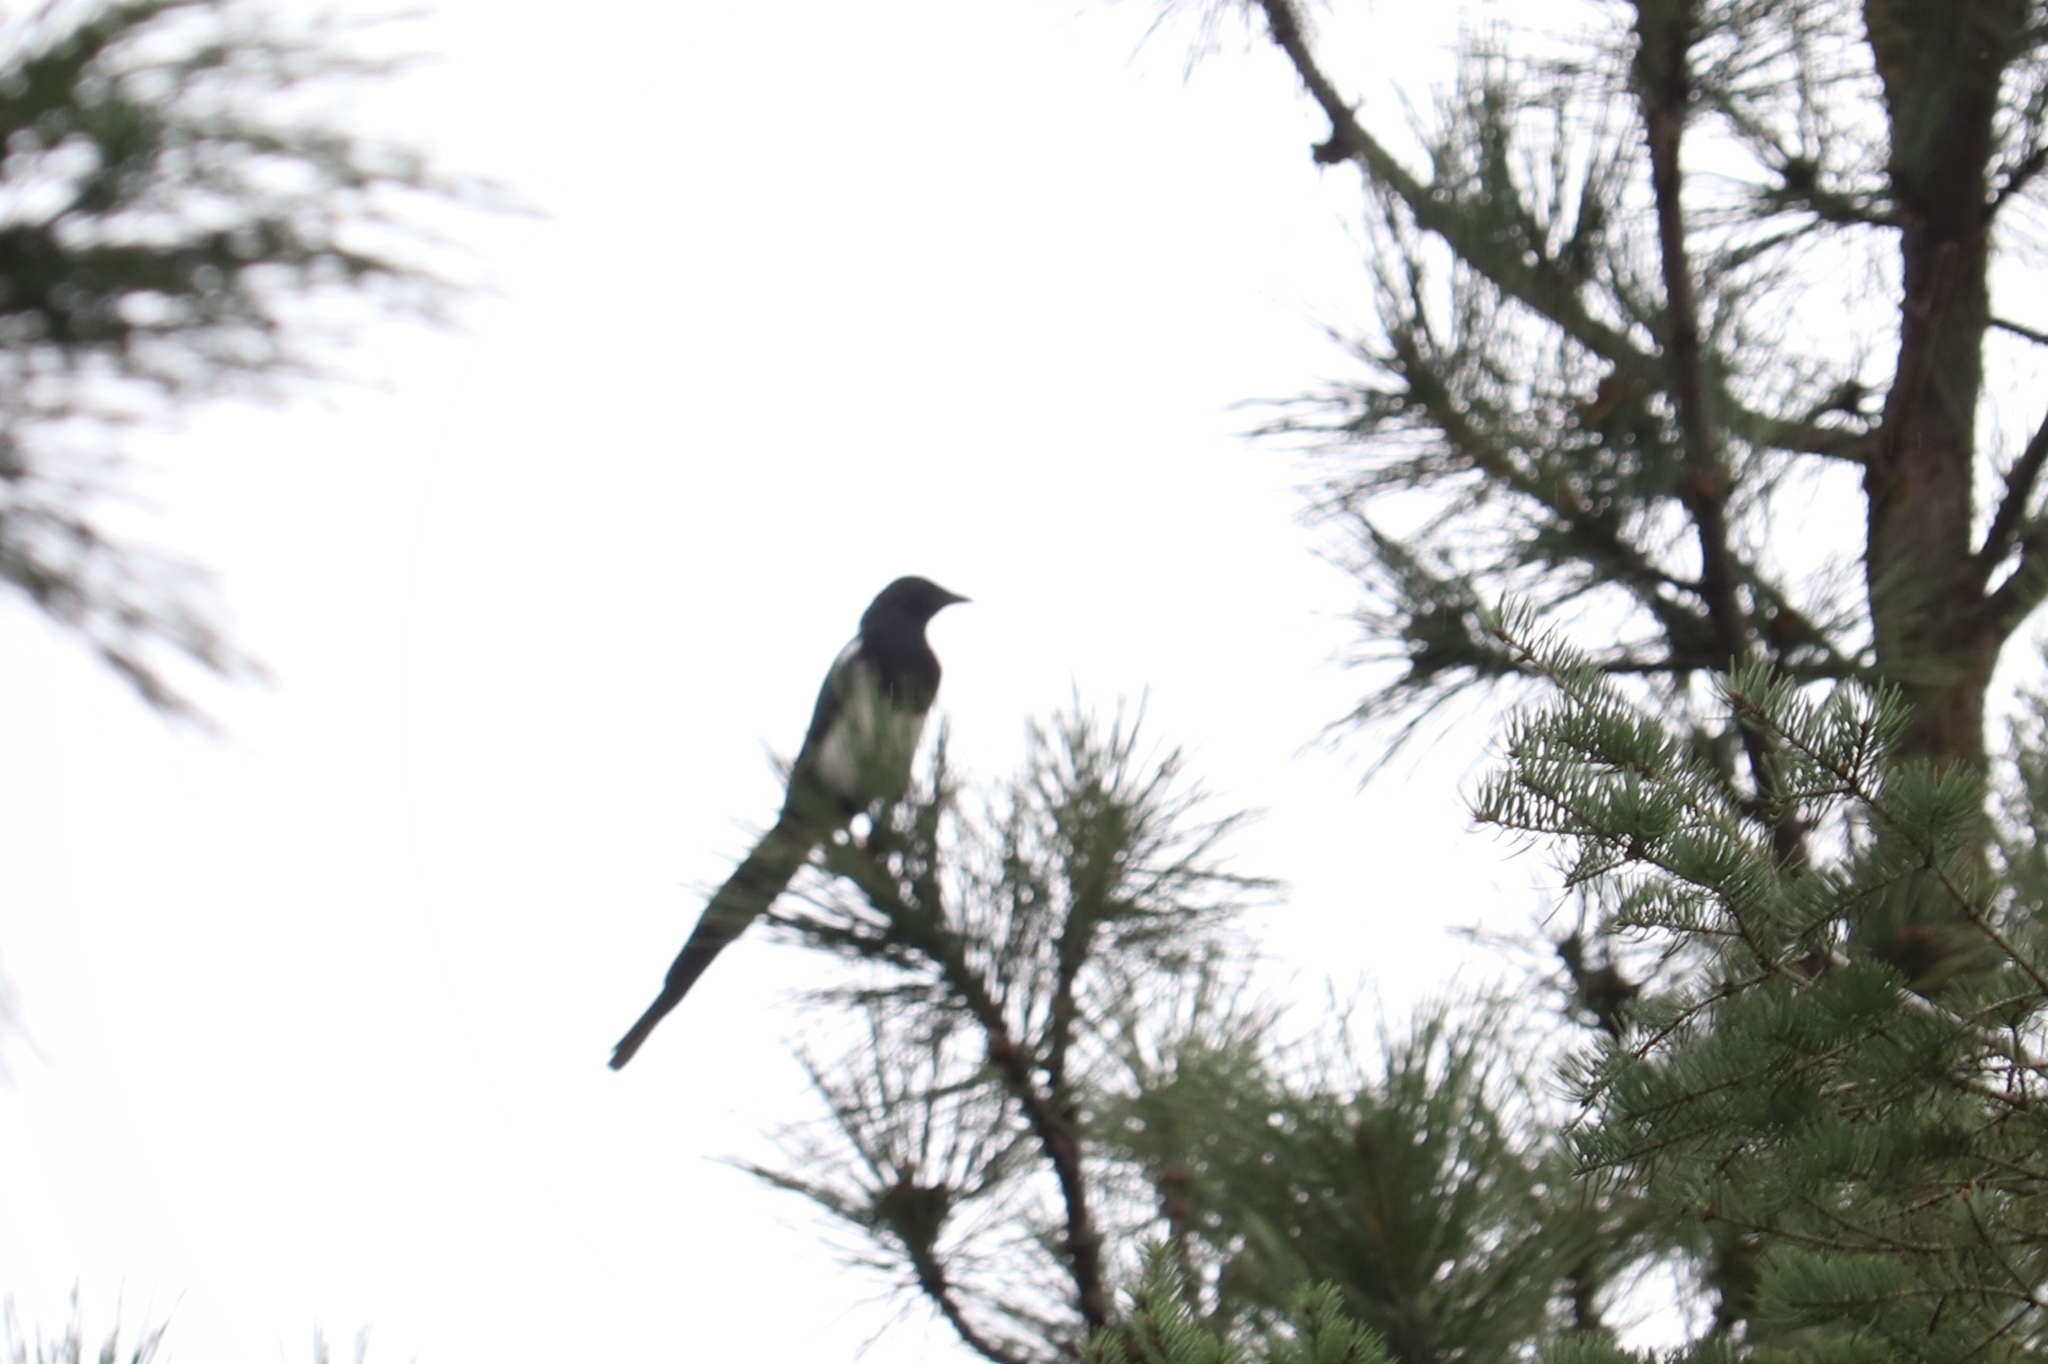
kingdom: Animalia
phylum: Chordata
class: Aves
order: Passeriformes
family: Corvidae
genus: Pica
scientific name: Pica hudsonia
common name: Black-billed magpie
